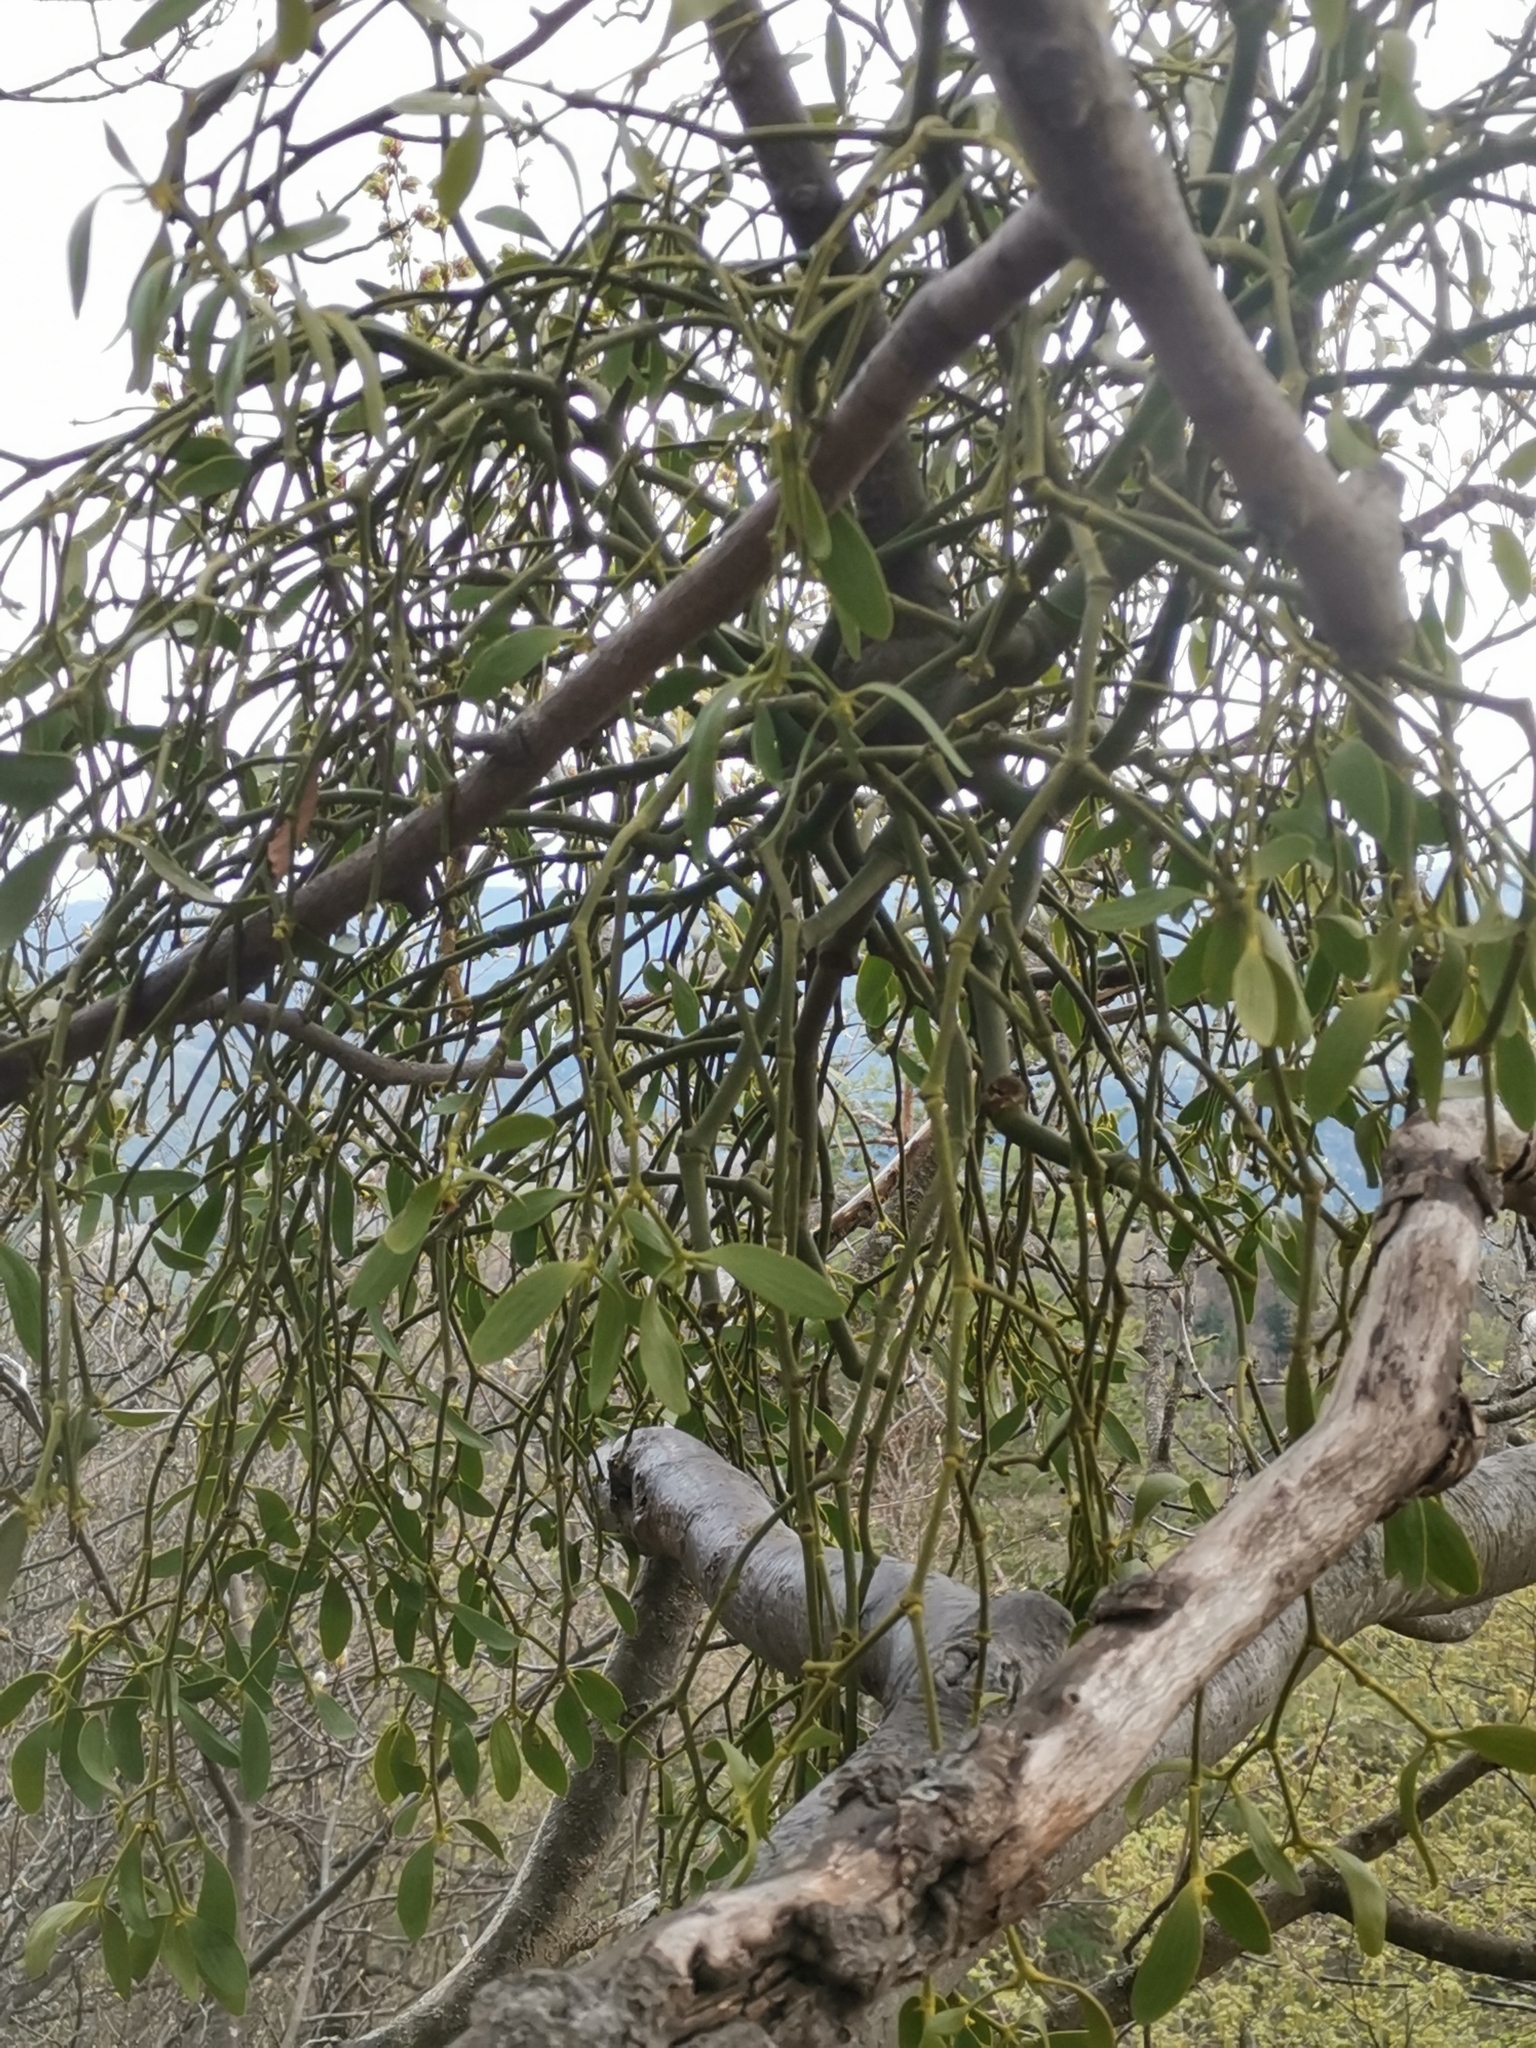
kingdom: Plantae
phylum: Tracheophyta
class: Magnoliopsida
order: Santalales
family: Viscaceae
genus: Viscum
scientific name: Viscum album
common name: Mistletoe
